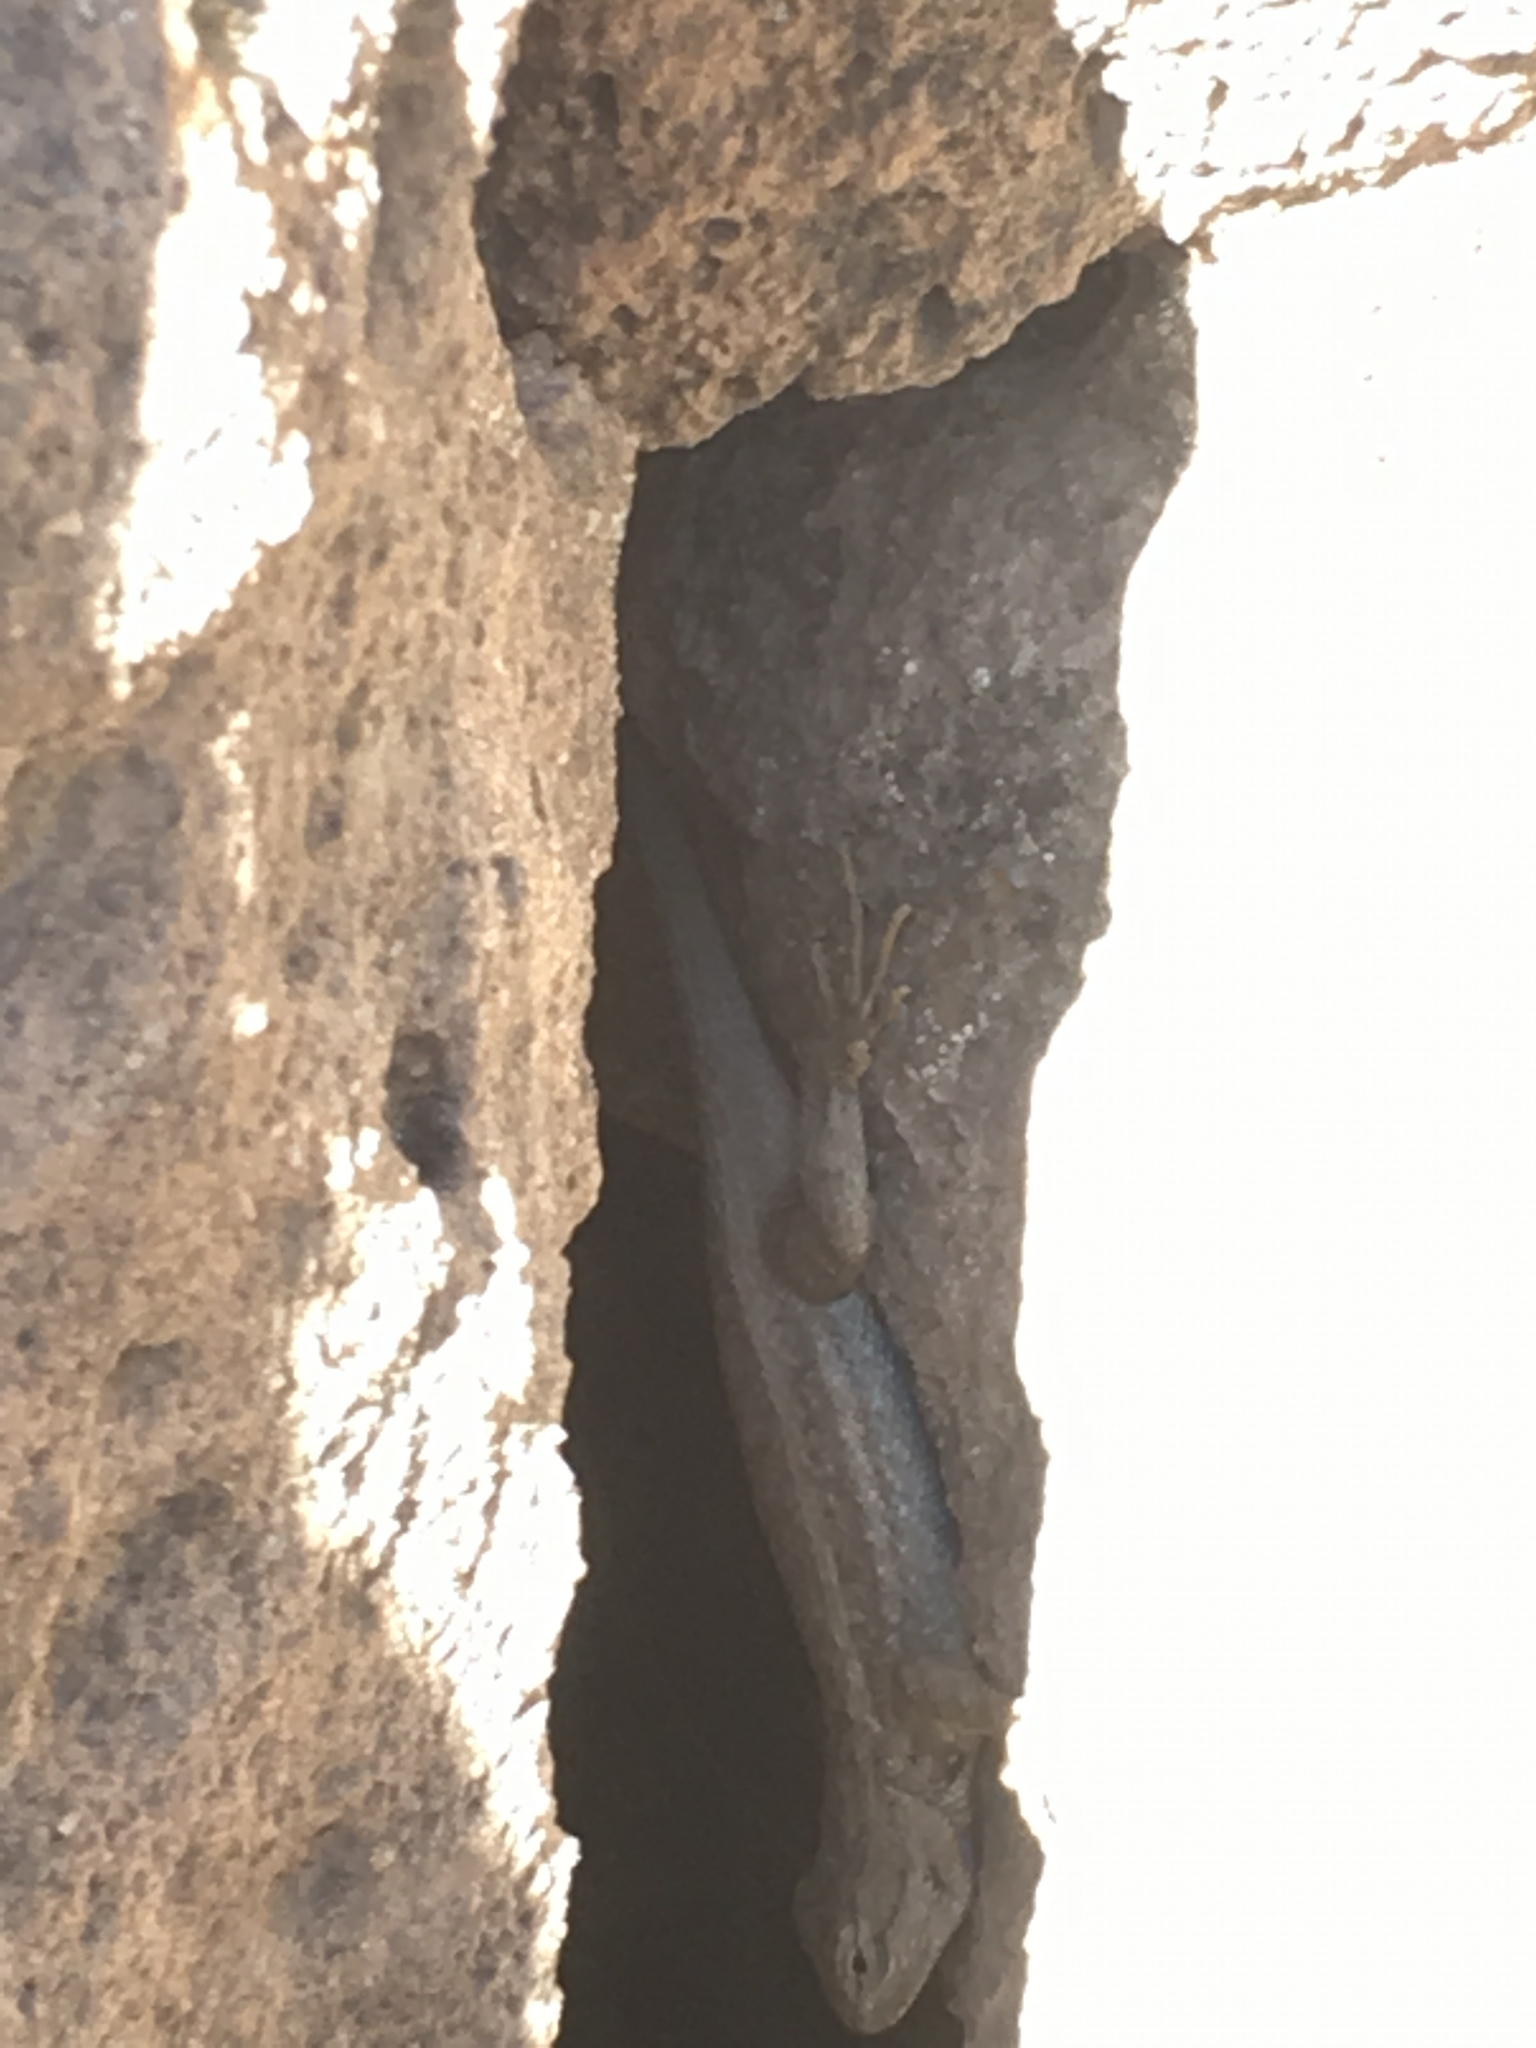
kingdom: Animalia
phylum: Chordata
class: Squamata
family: Phrynosomatidae
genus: Sceloporus
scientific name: Sceloporus tristichus
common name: Plateau fence lizard
